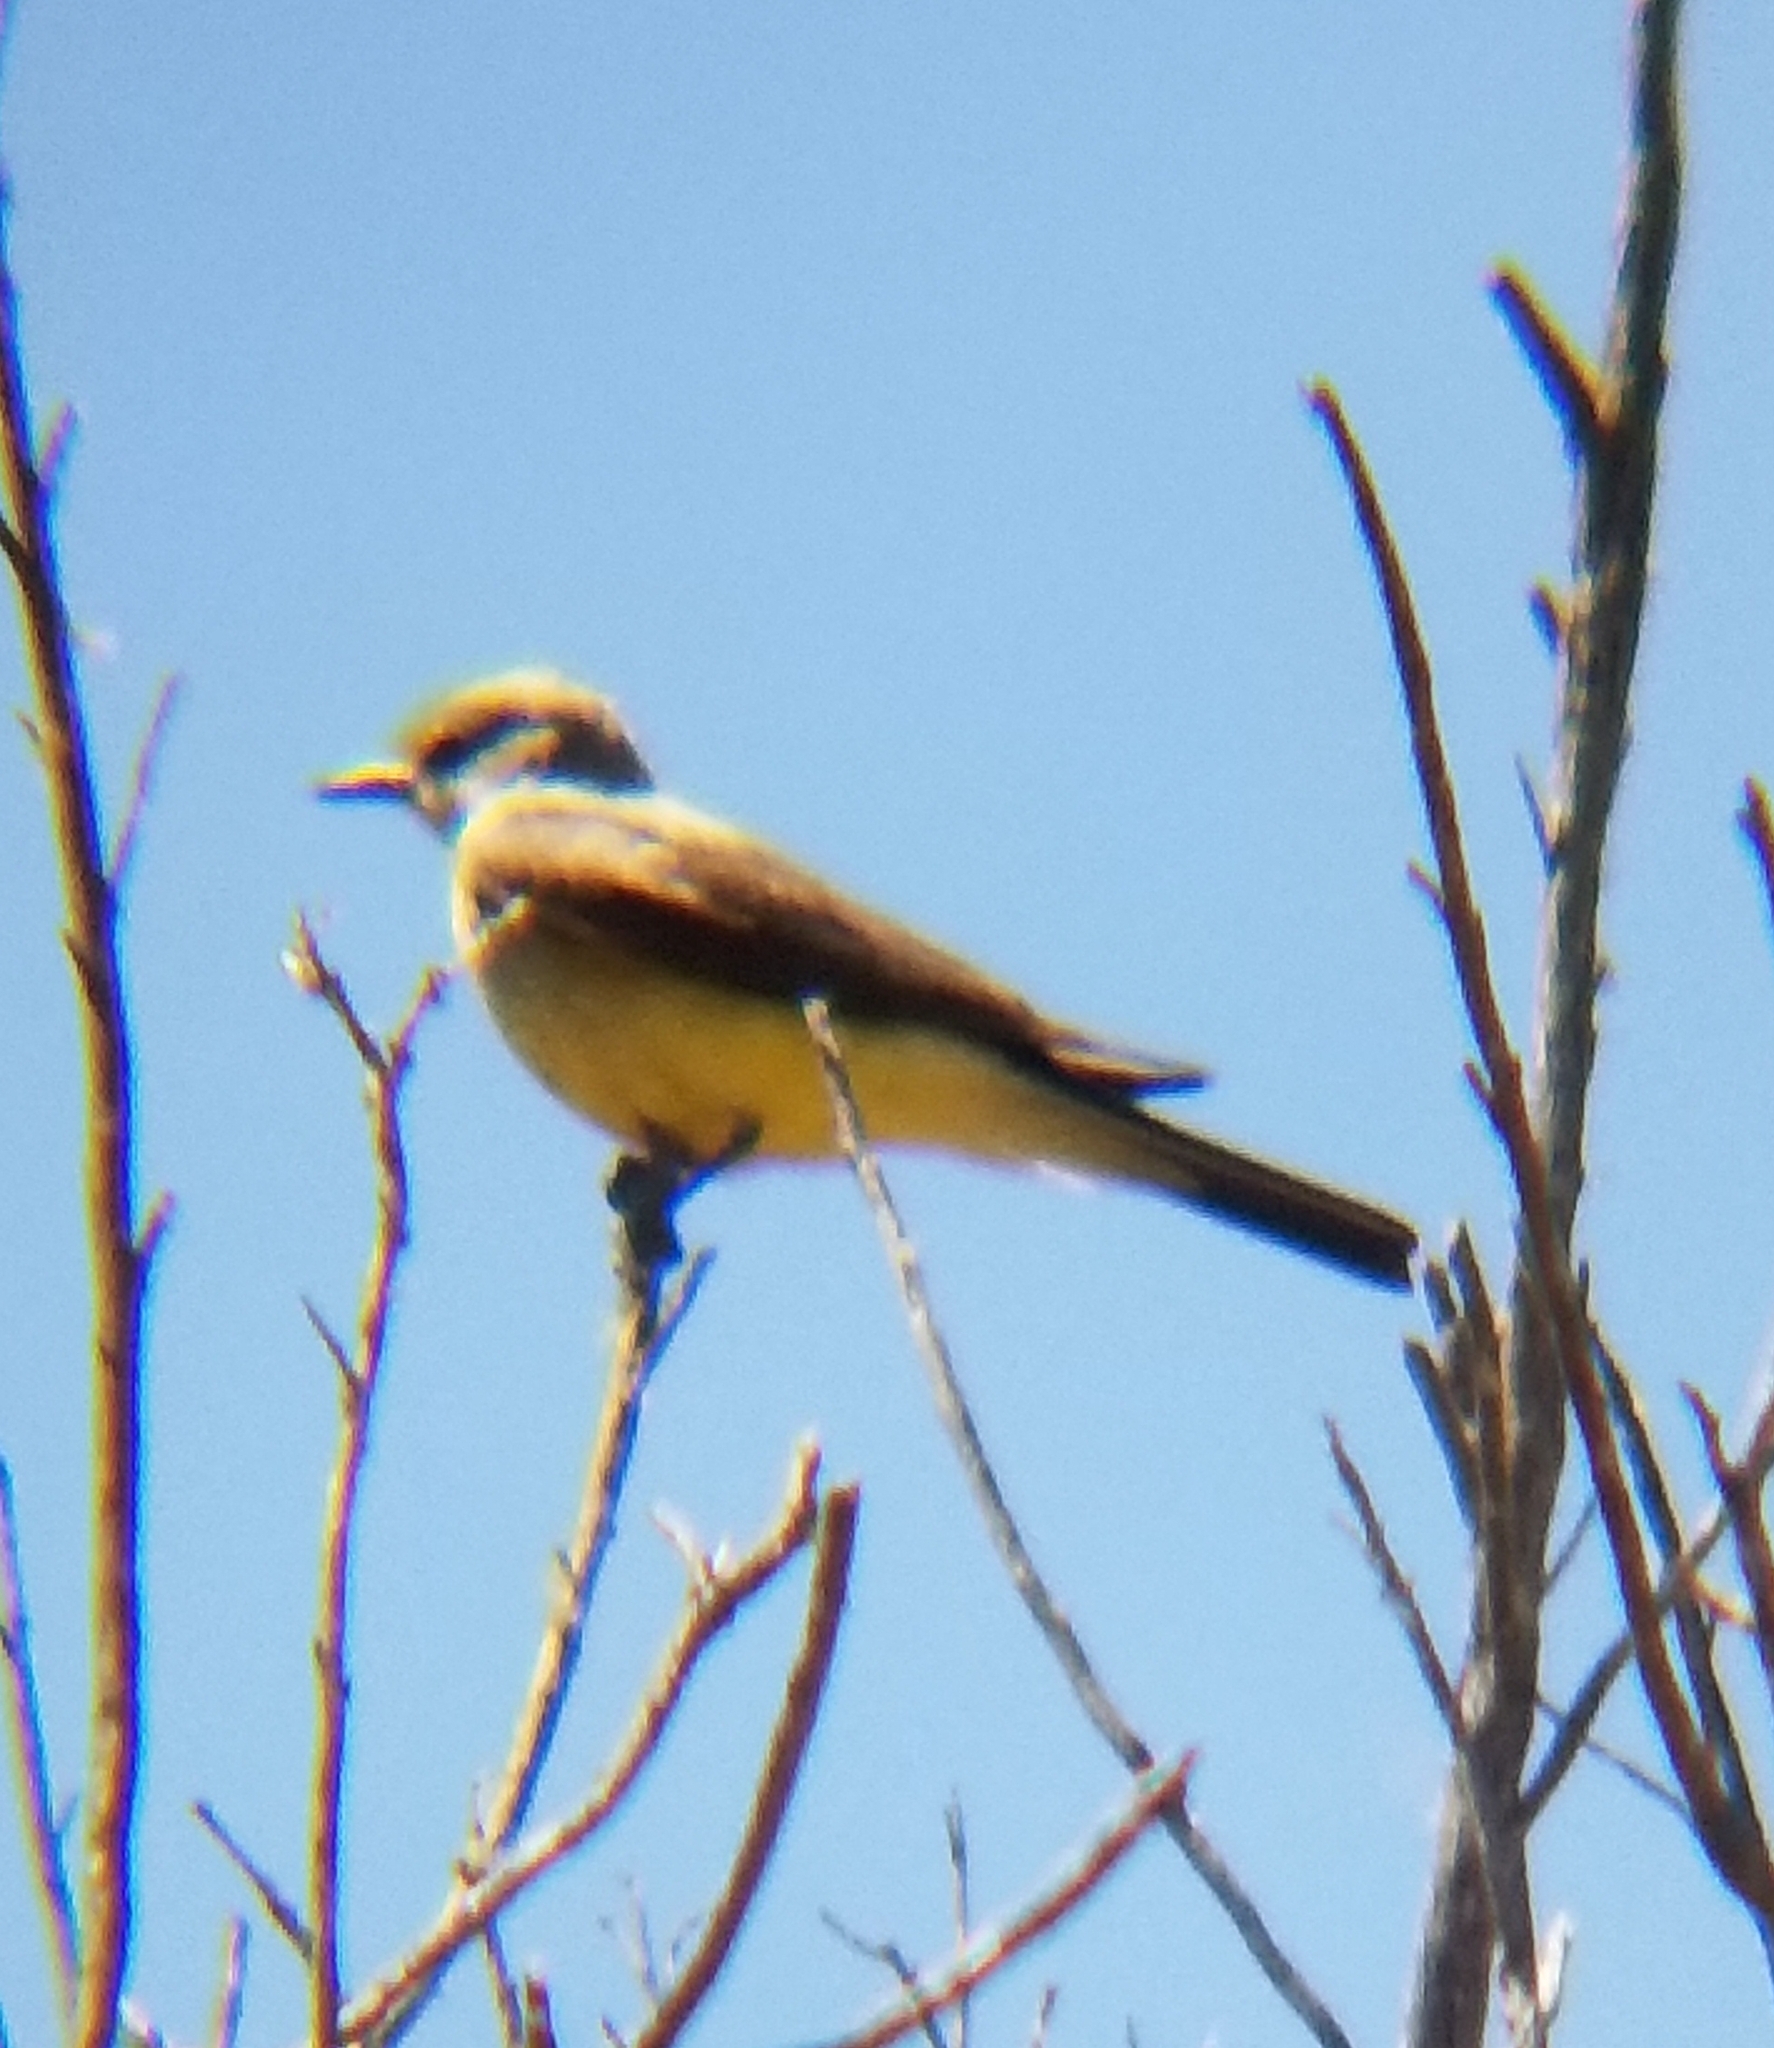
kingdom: Animalia
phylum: Chordata
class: Aves
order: Passeriformes
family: Tyrannidae
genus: Tyrannus
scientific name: Tyrannus verticalis
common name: Western kingbird
